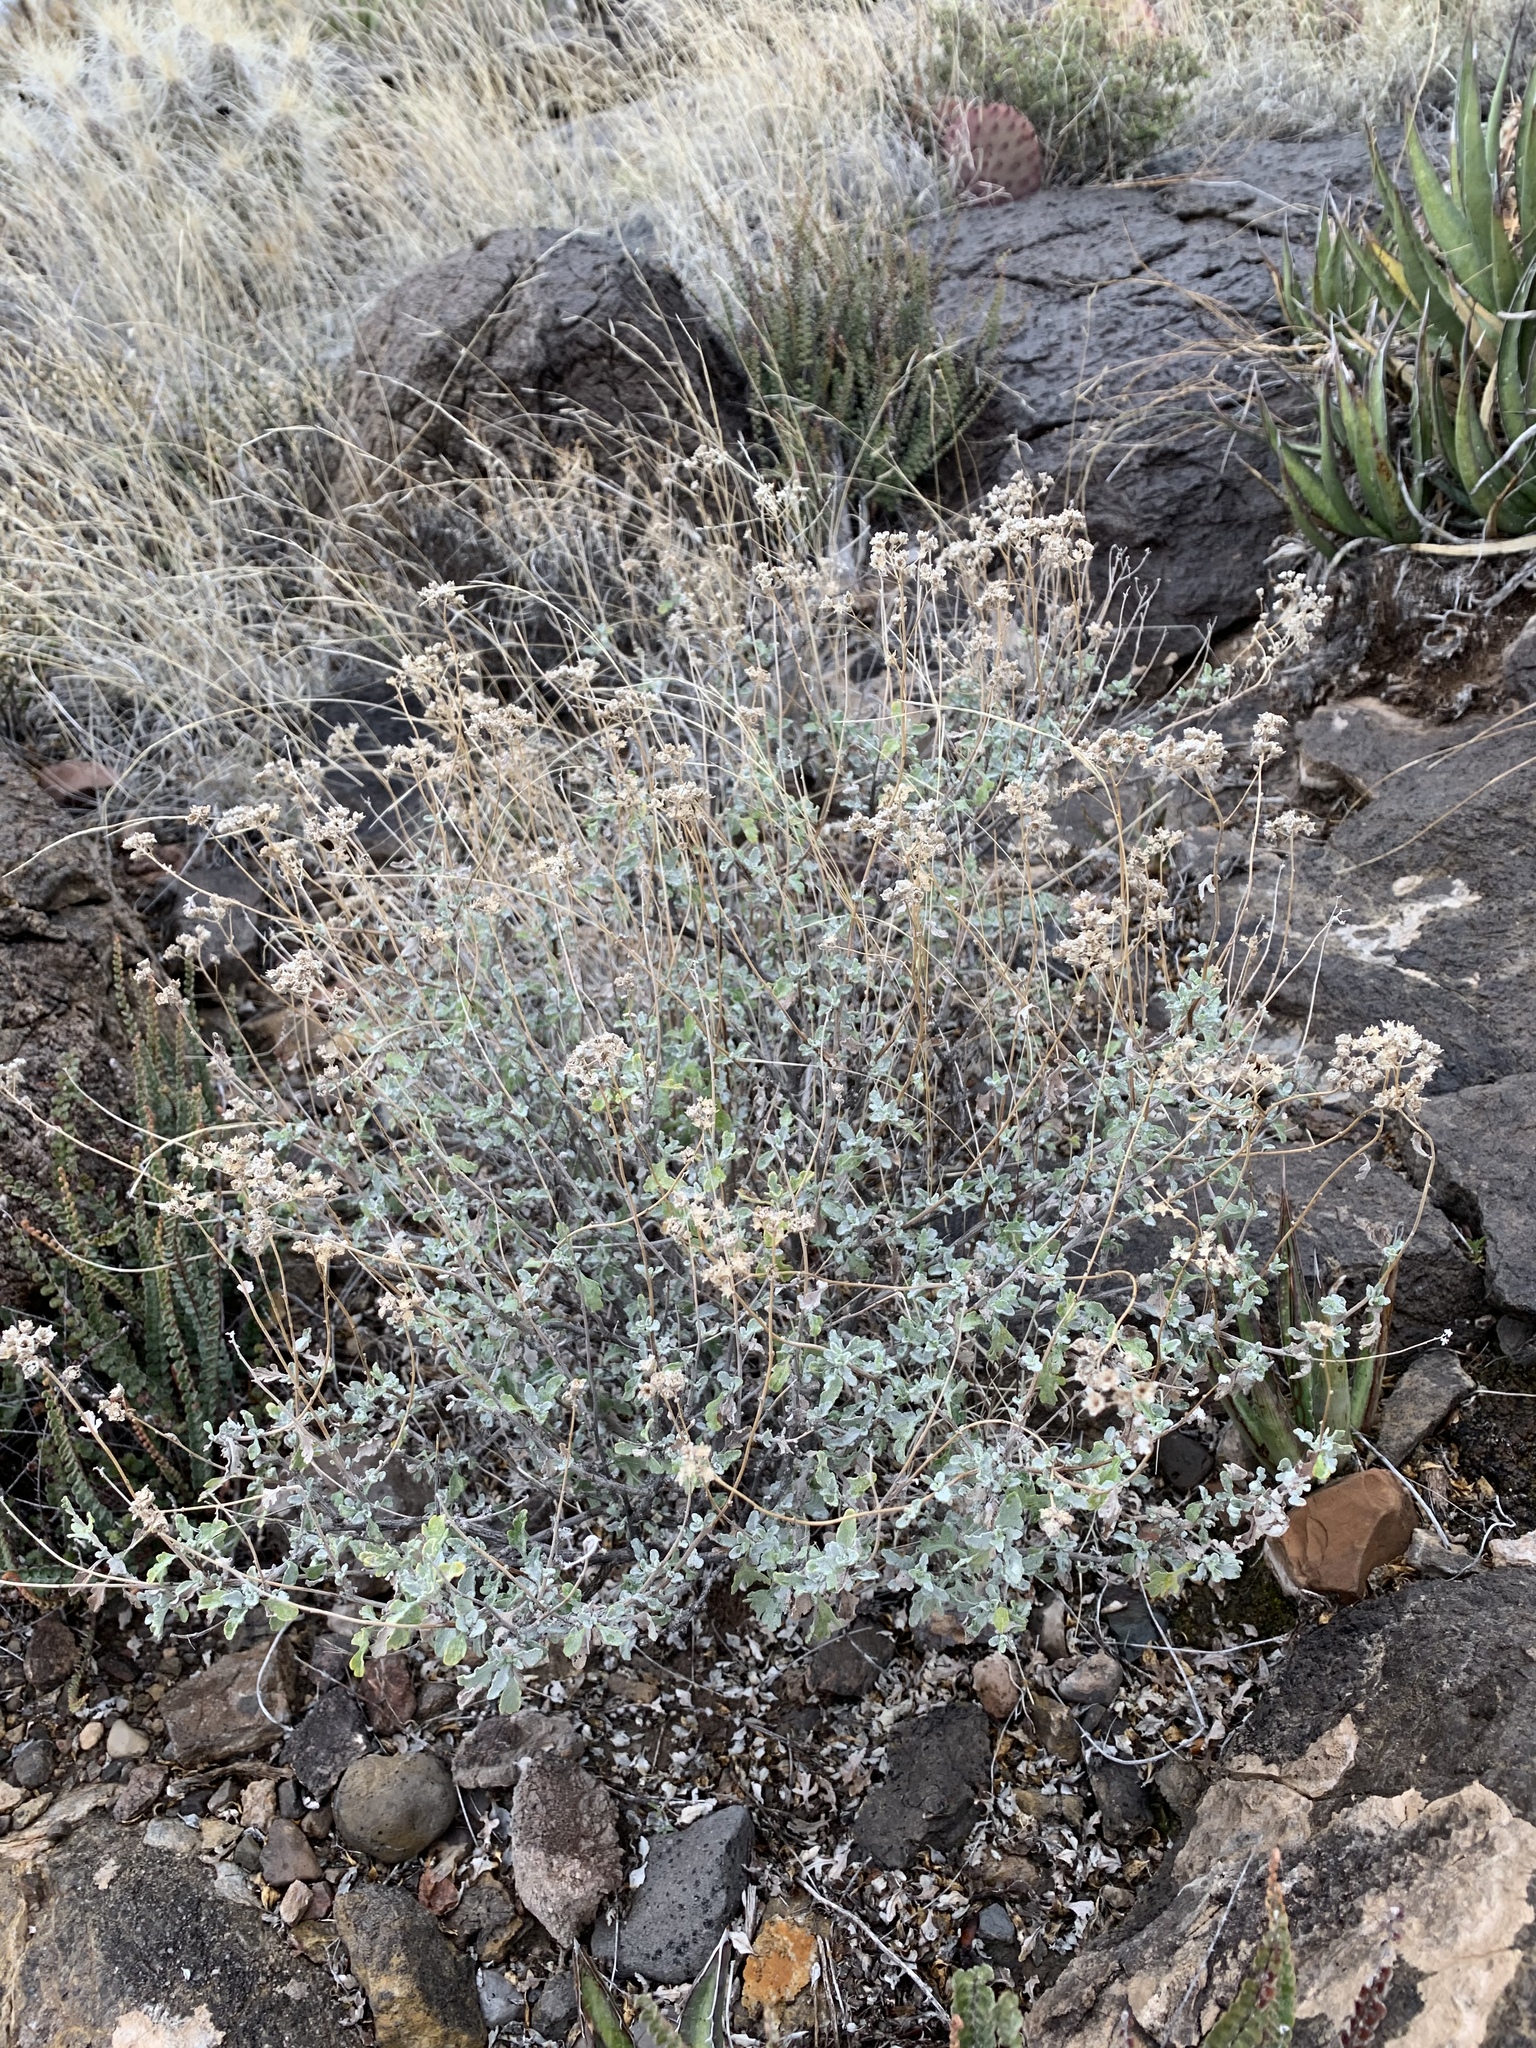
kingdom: Plantae
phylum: Tracheophyta
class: Magnoliopsida
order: Asterales
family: Asteraceae
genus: Parthenium
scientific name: Parthenium incanum
